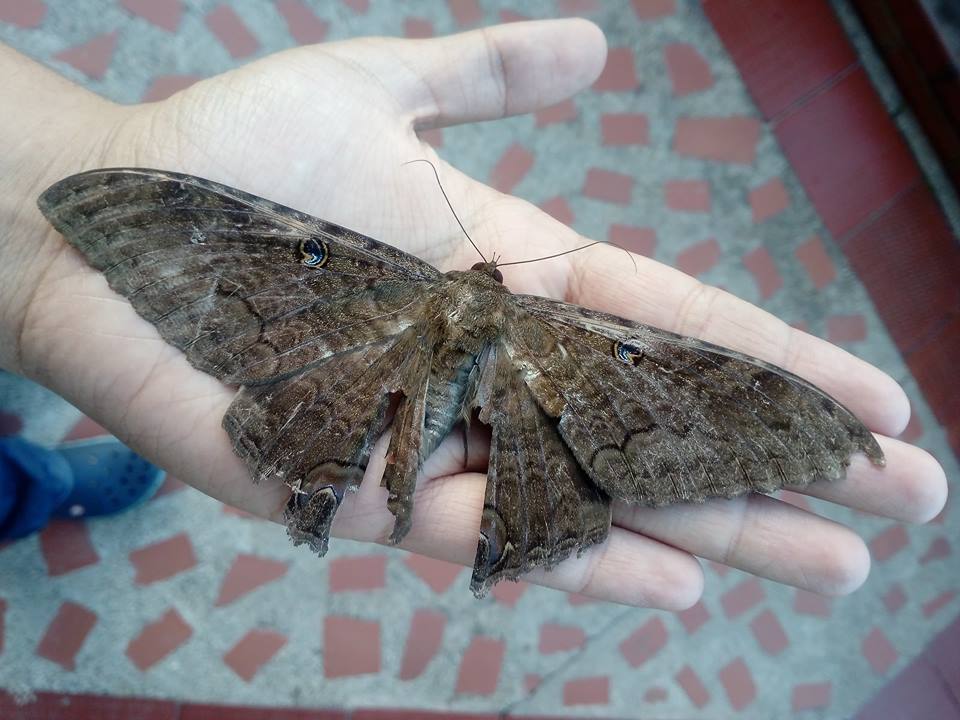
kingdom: Animalia
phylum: Arthropoda
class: Insecta
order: Lepidoptera
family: Erebidae
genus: Ascalapha
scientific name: Ascalapha odorata
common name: Black witch
